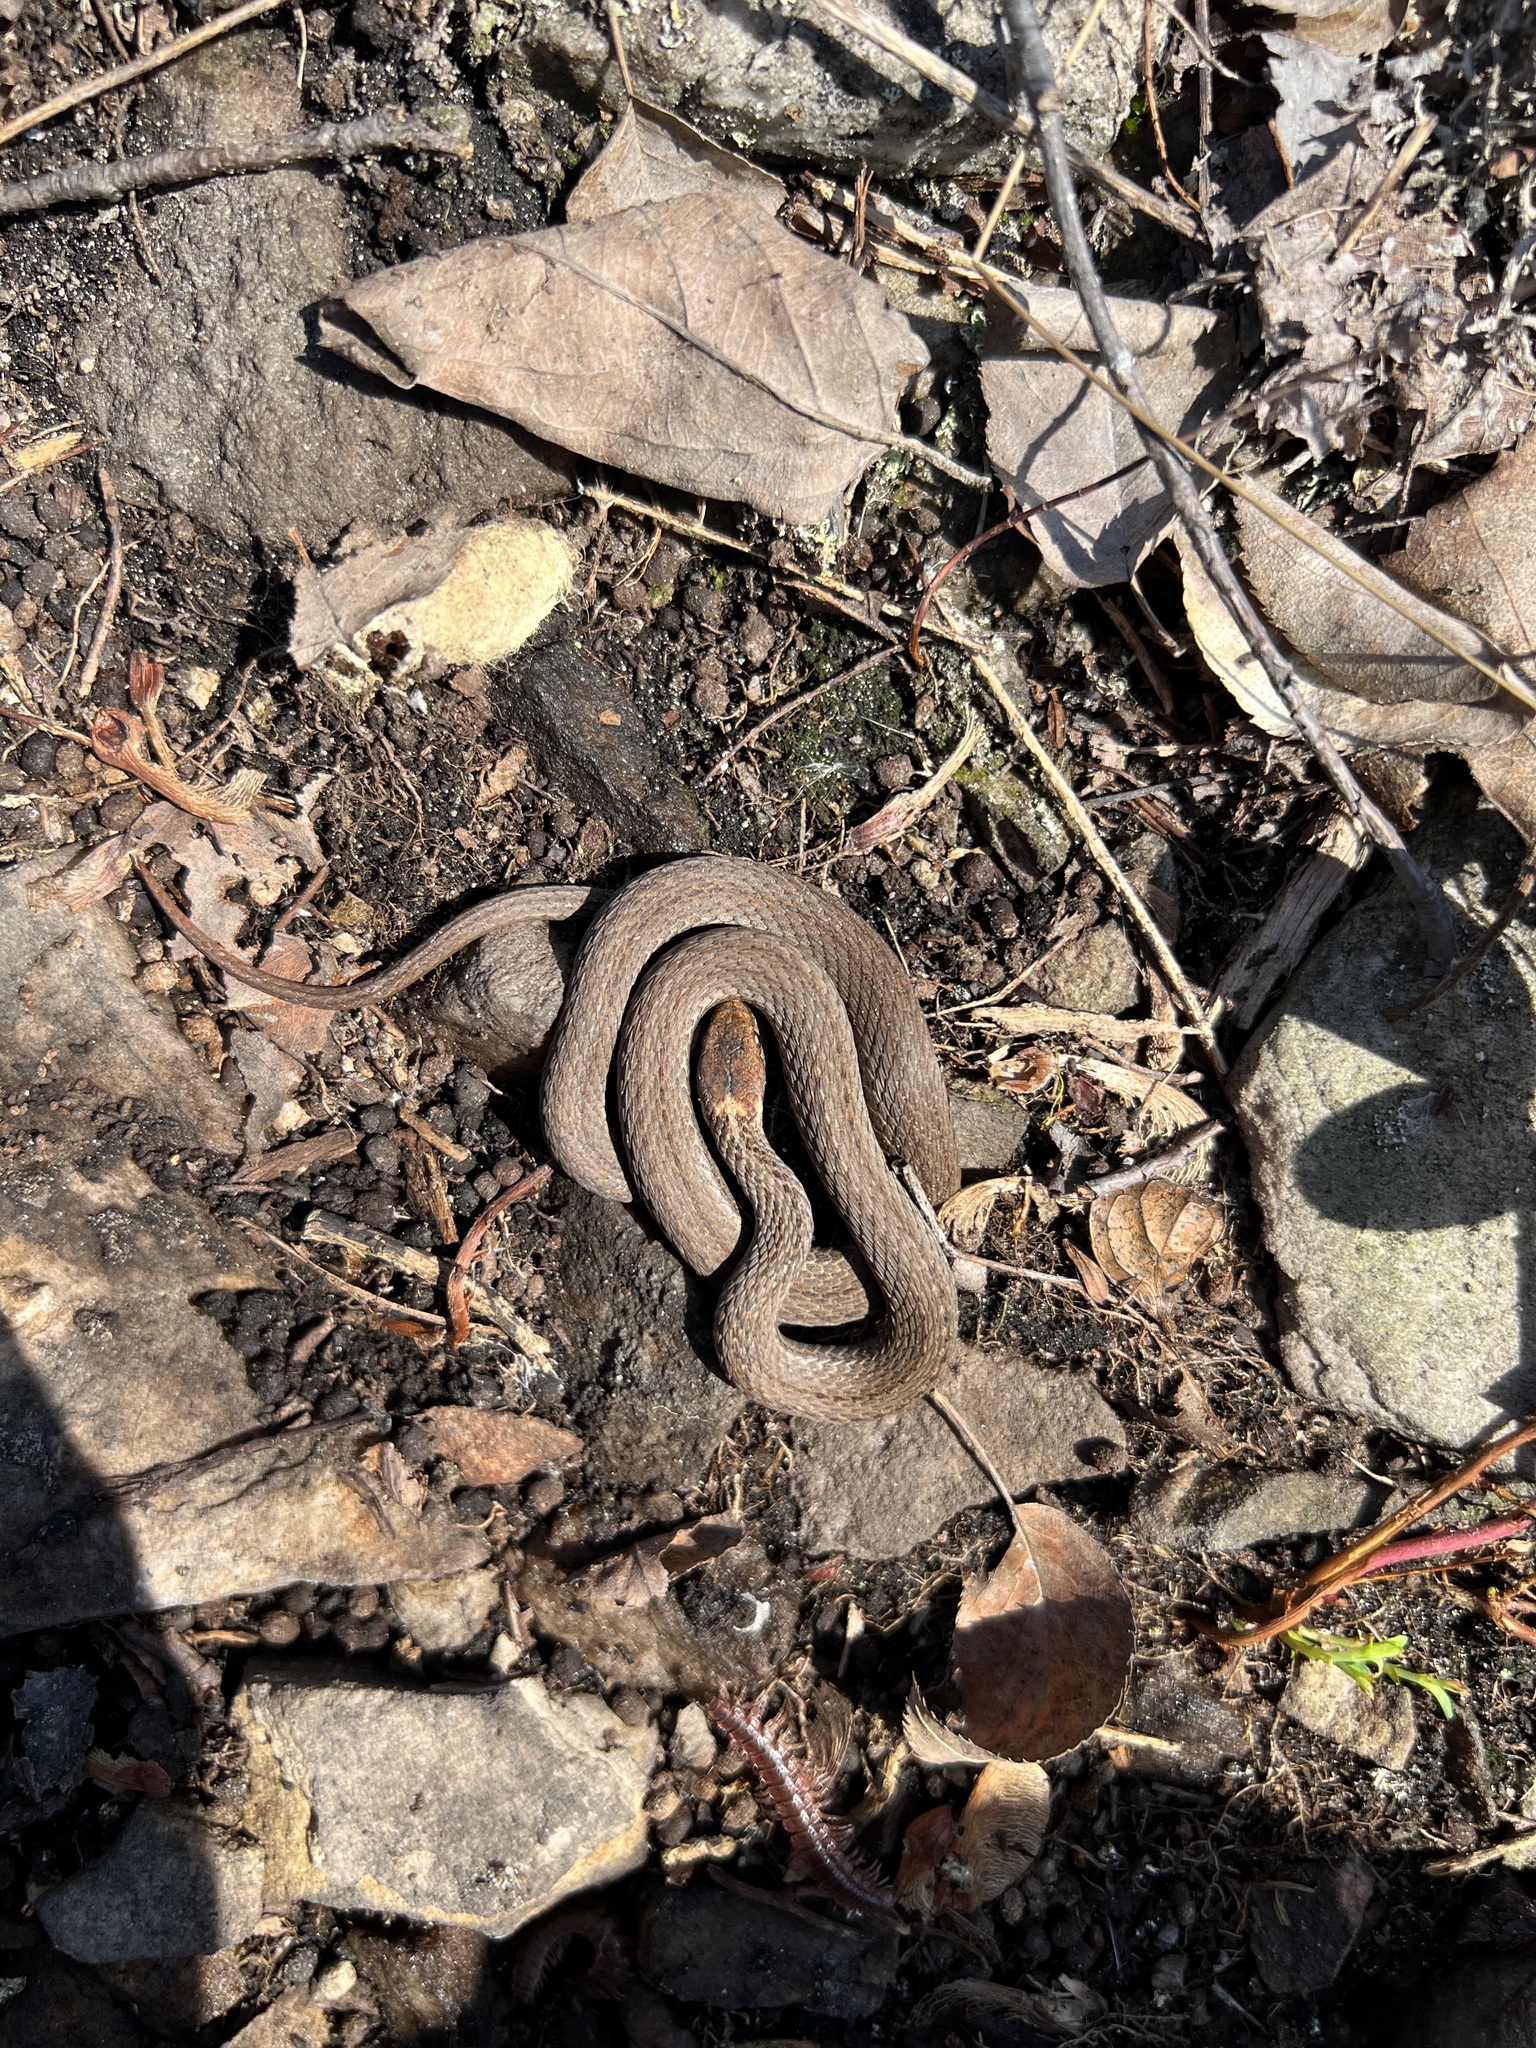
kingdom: Animalia
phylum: Chordata
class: Squamata
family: Colubridae
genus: Storeria
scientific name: Storeria occipitomaculata
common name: Redbelly snake
